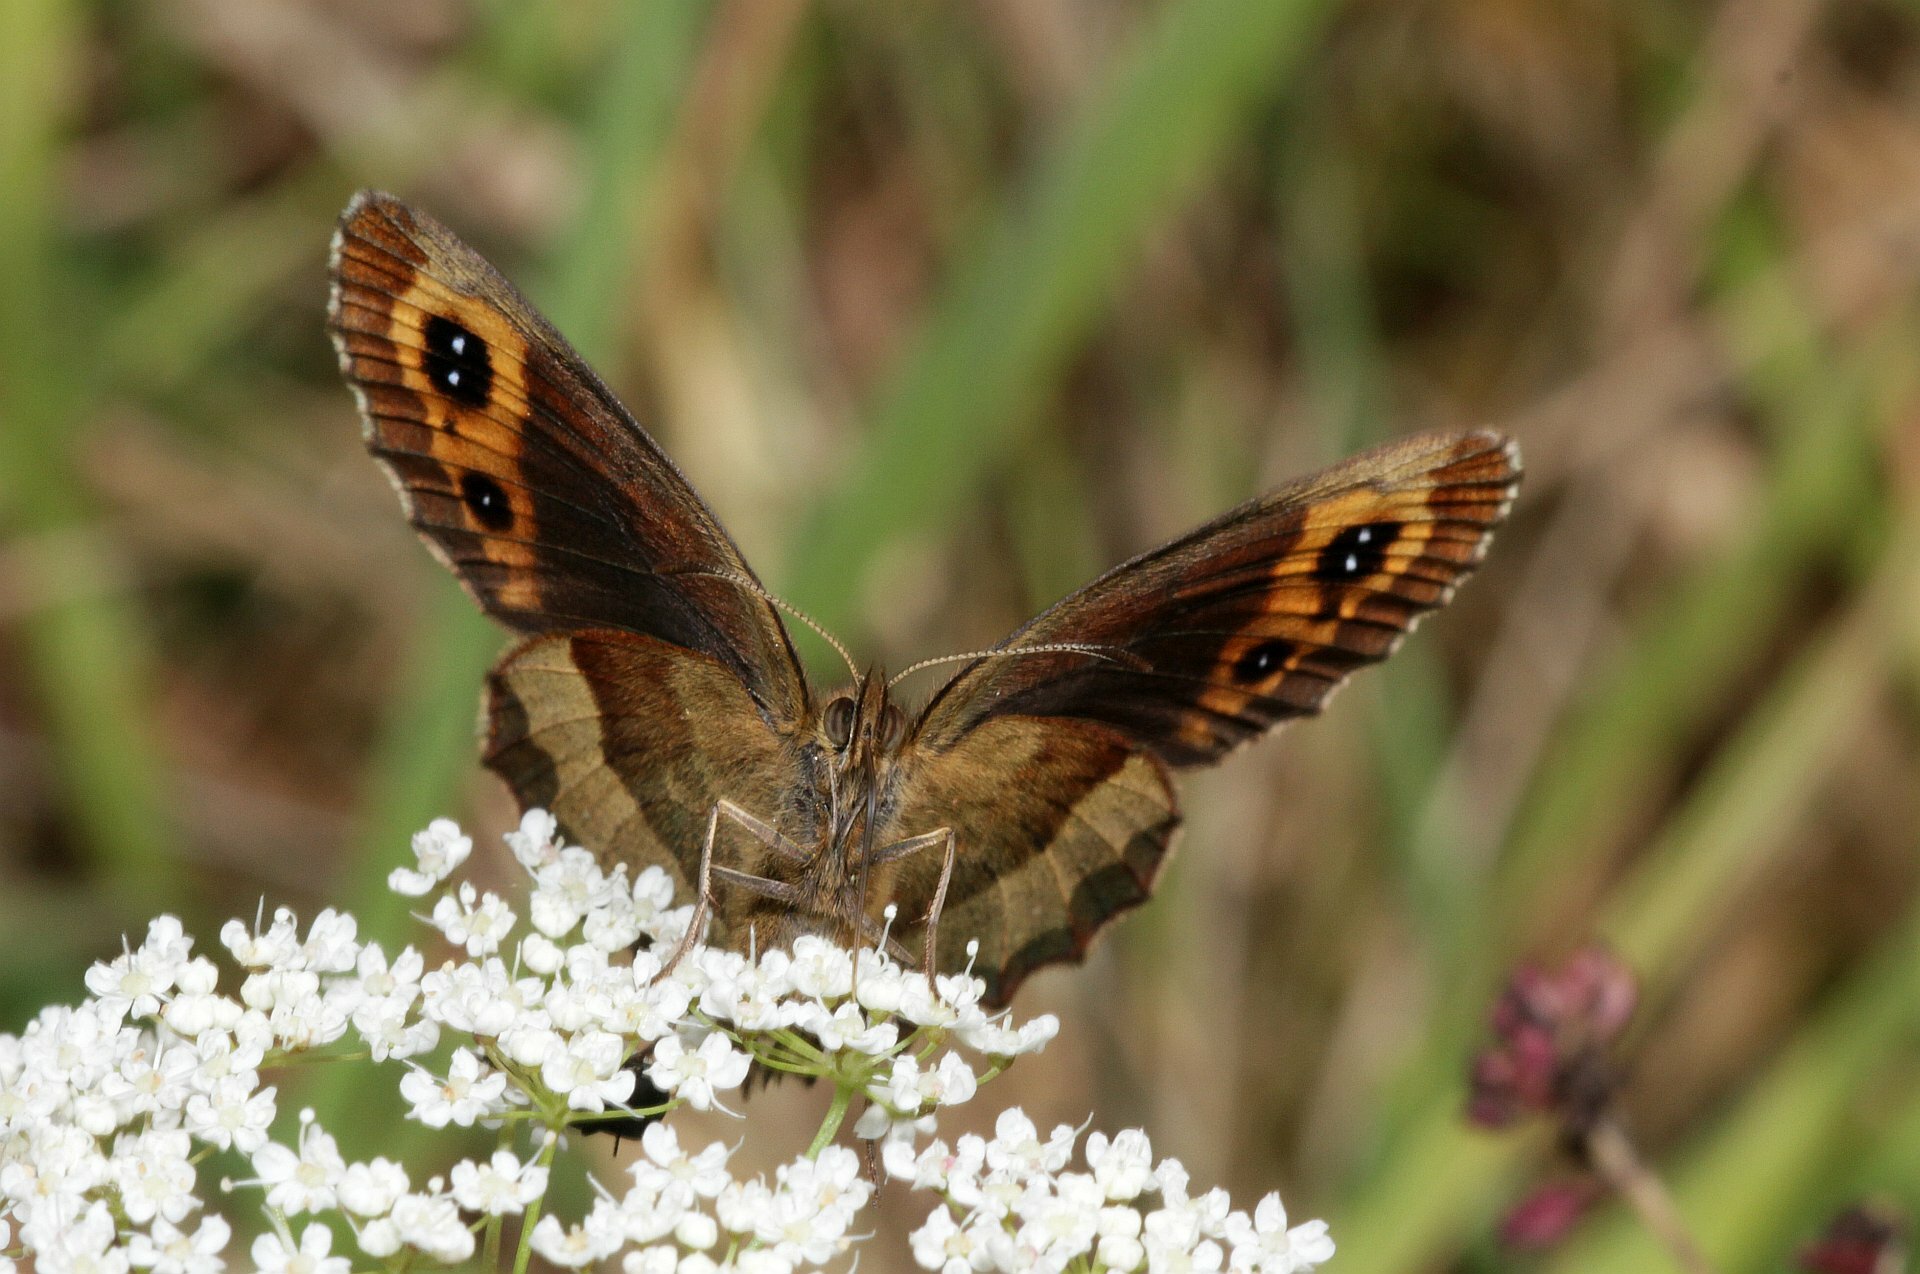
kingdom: Animalia
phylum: Arthropoda
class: Insecta
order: Lepidoptera
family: Nymphalidae
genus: Erebia
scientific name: Erebia aethiops
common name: Scotch argus
